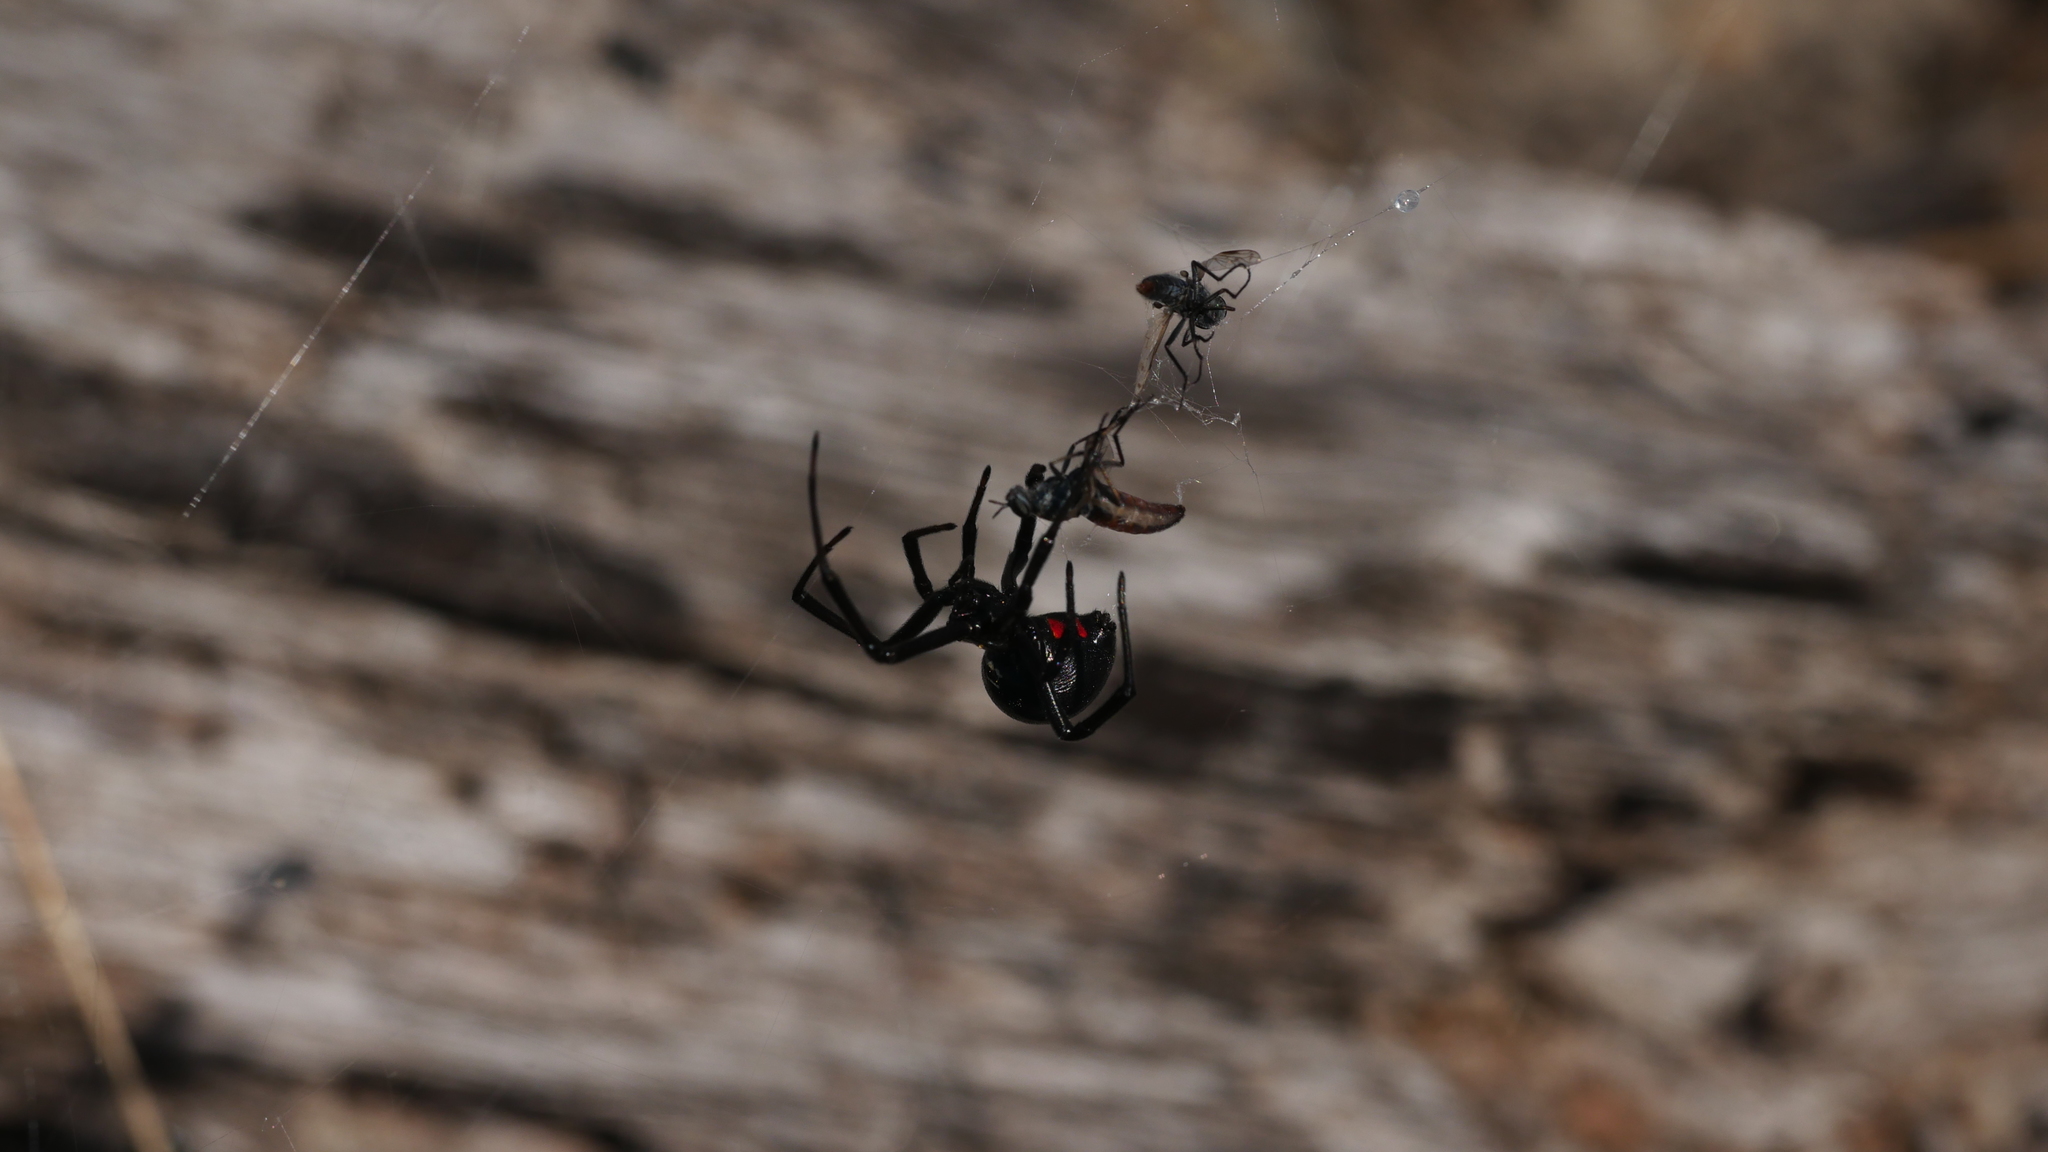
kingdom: Animalia
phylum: Arthropoda
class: Arachnida
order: Araneae
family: Theridiidae
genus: Latrodectus
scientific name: Latrodectus mactans
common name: Cobweb spiders
